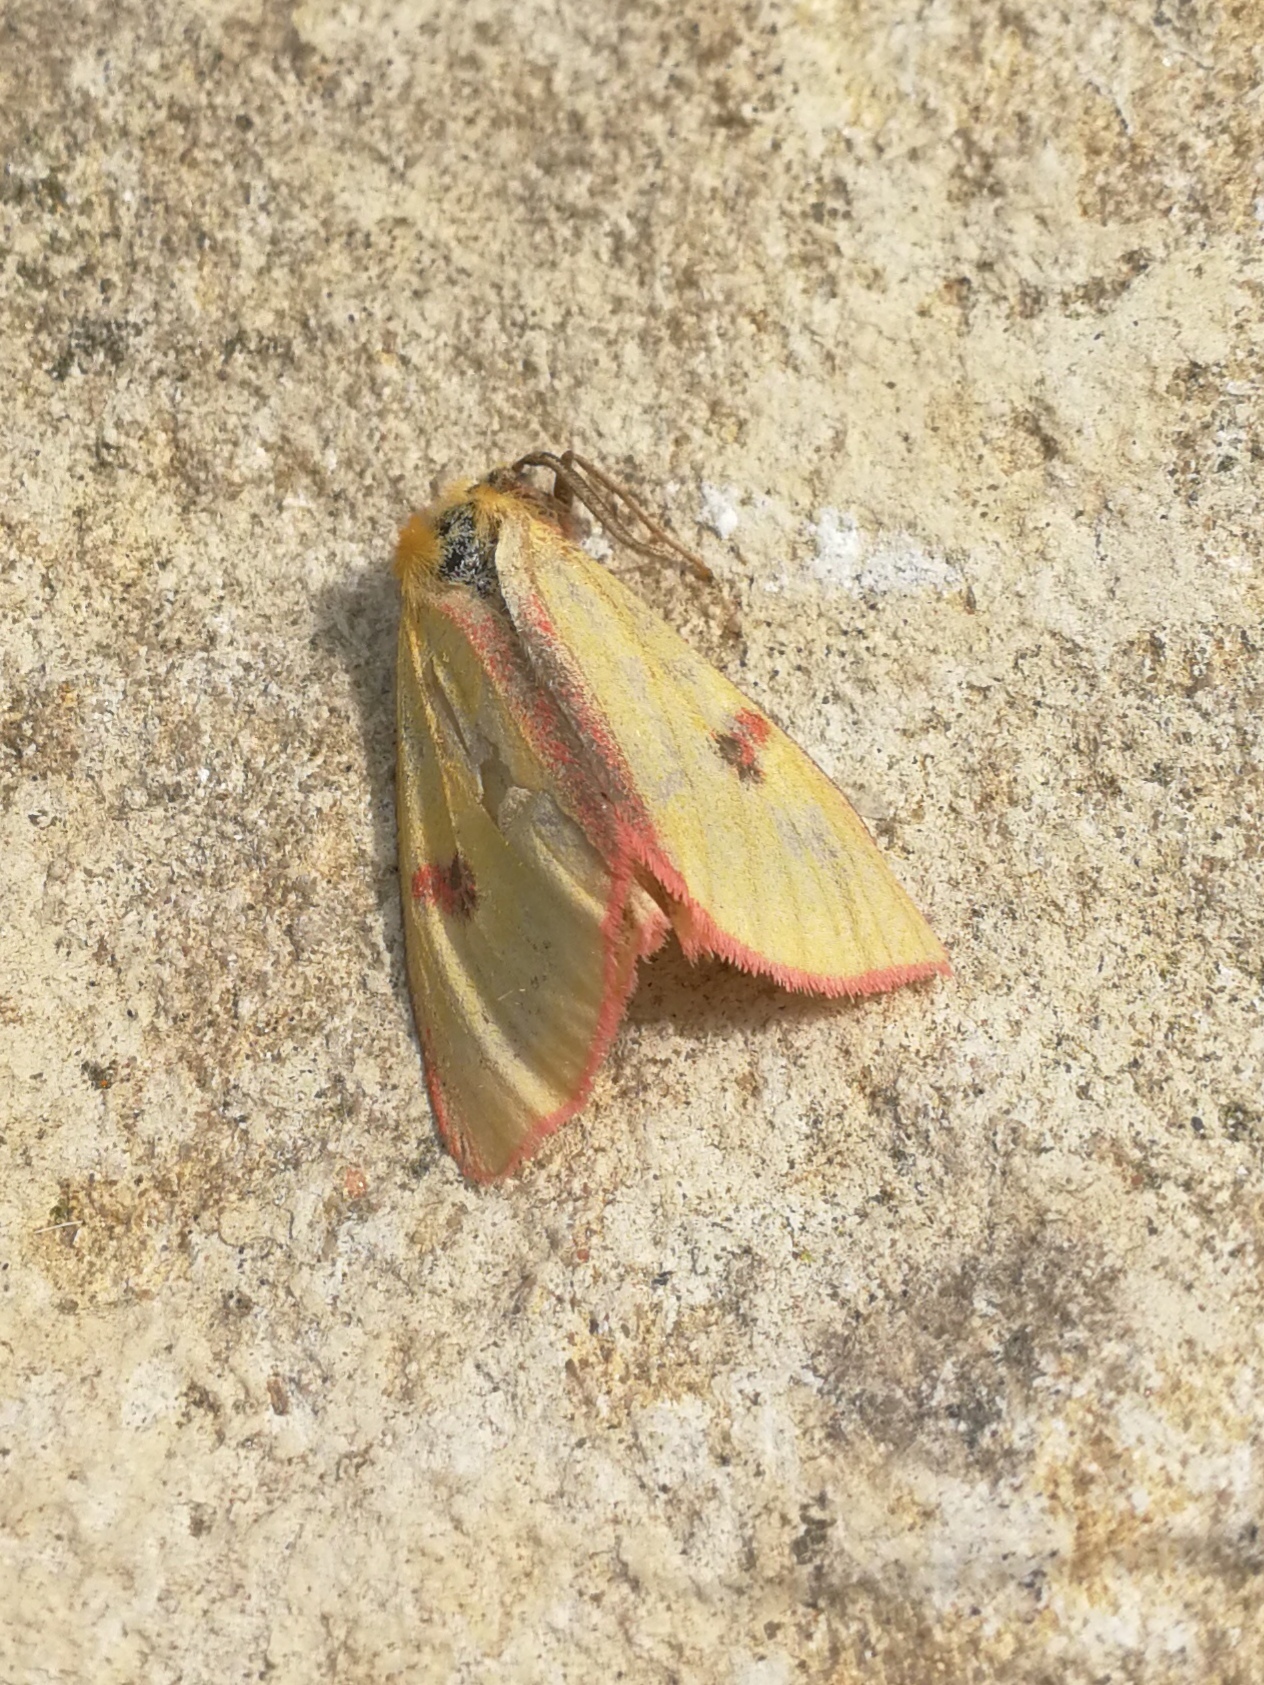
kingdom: Animalia
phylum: Arthropoda
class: Insecta
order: Lepidoptera
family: Erebidae
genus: Diacrisia
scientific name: Diacrisia sannio
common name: Clouded buff
